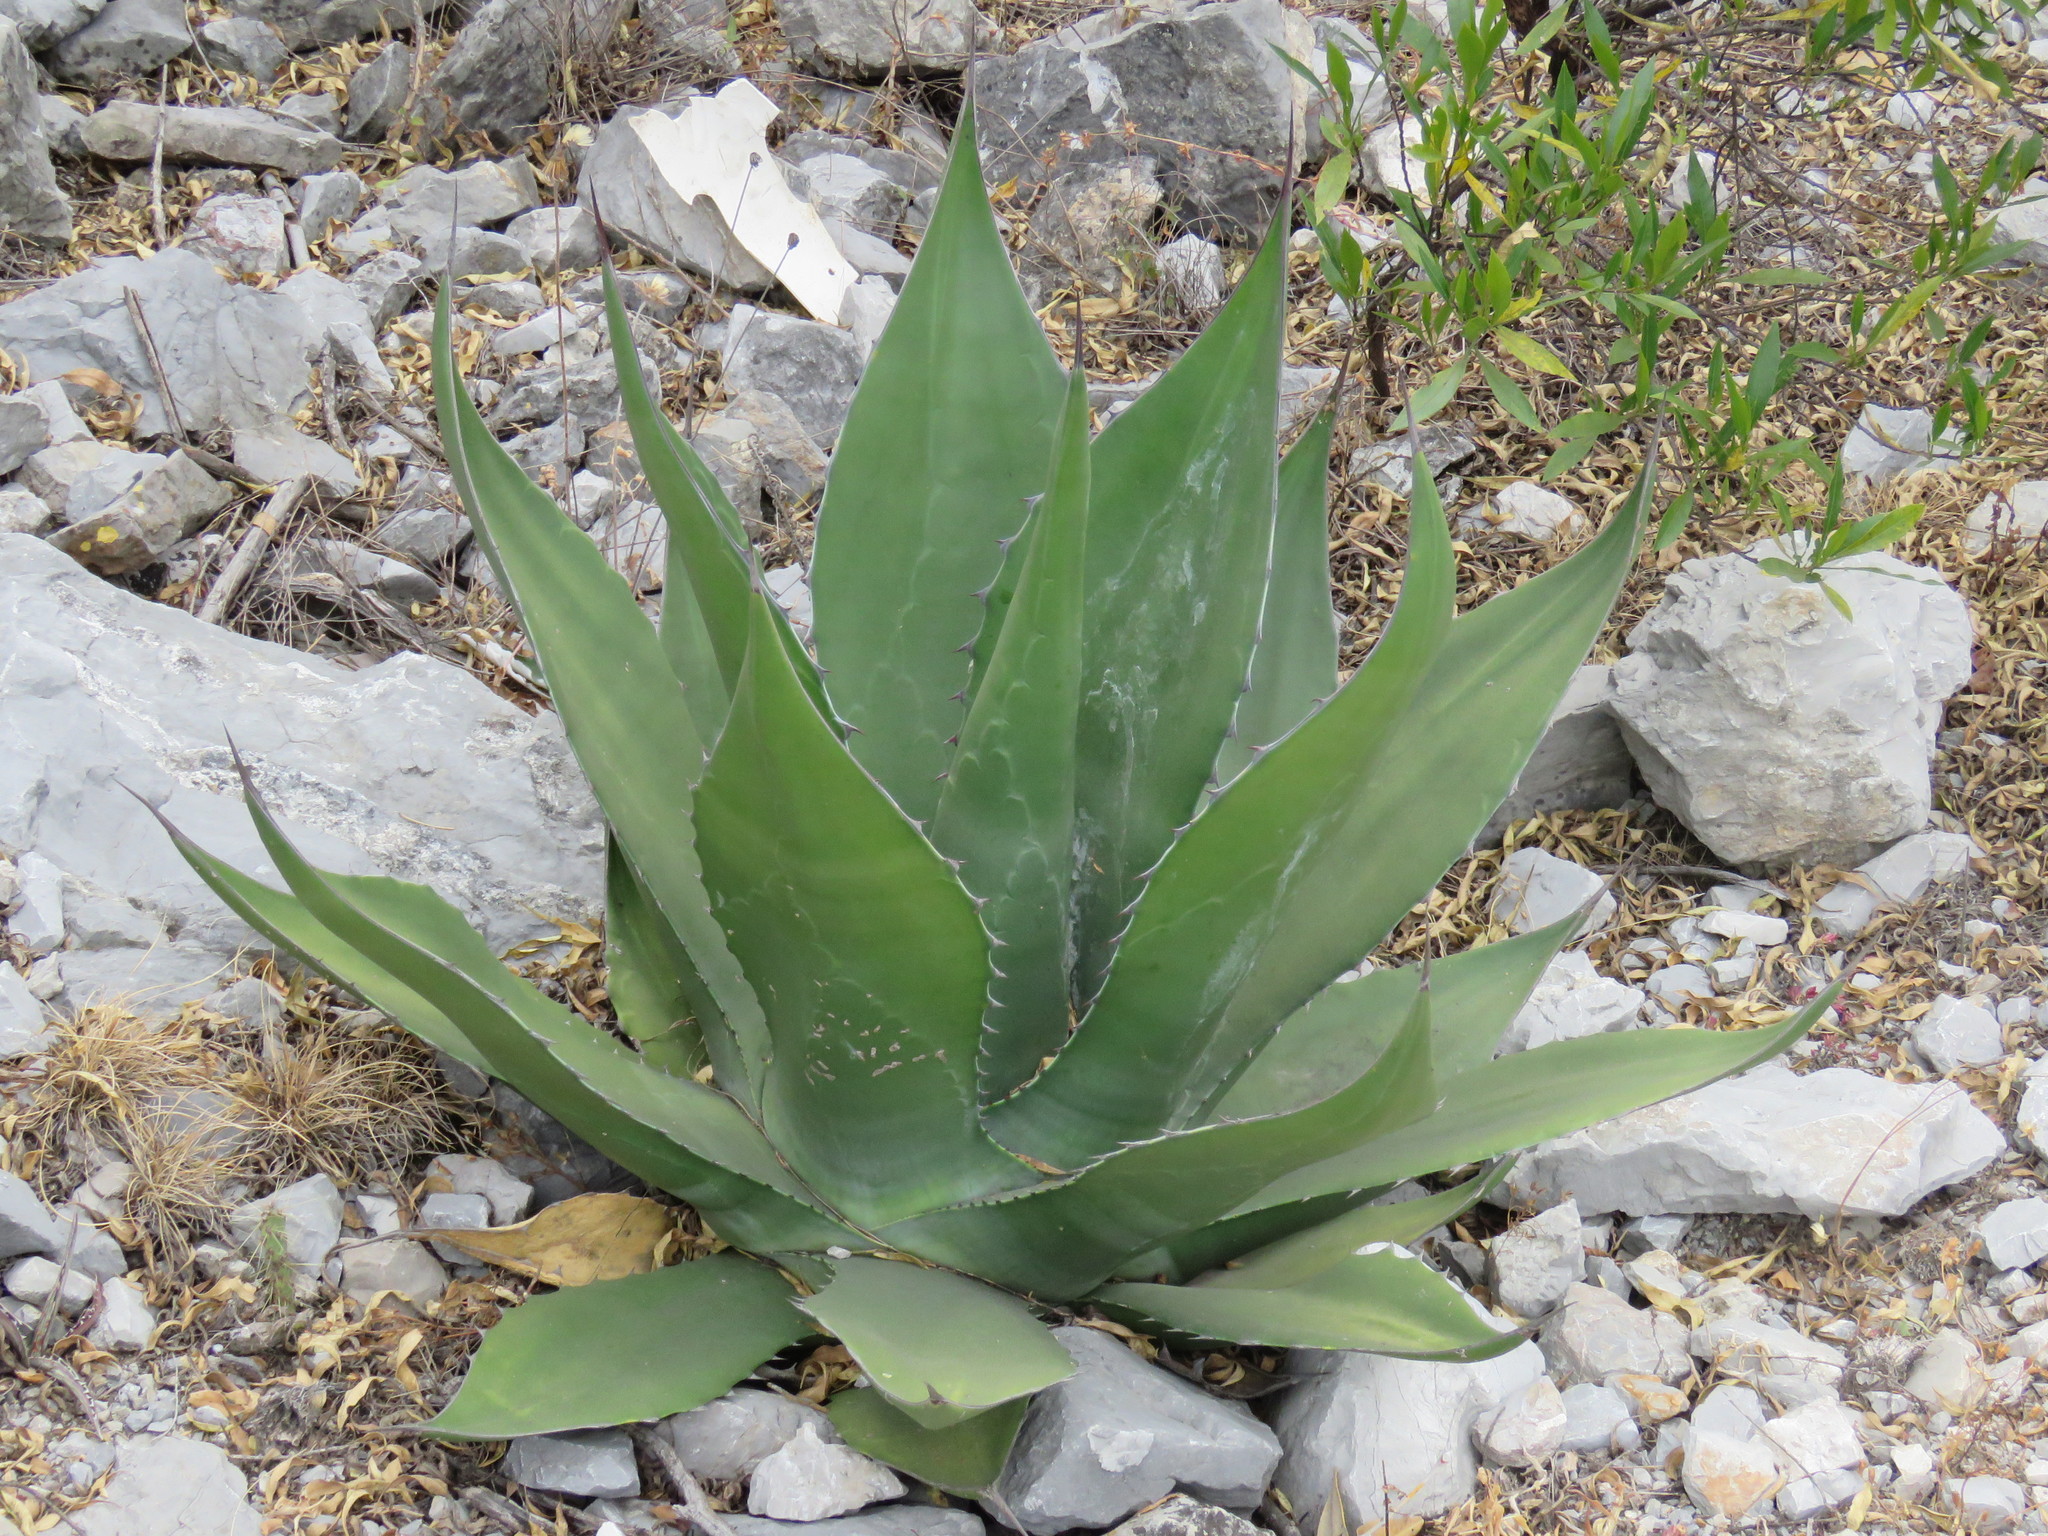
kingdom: Plantae
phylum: Tracheophyta
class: Liliopsida
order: Asparagales
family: Asparagaceae
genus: Agave
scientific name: Agave salmiana
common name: Pulque agave
